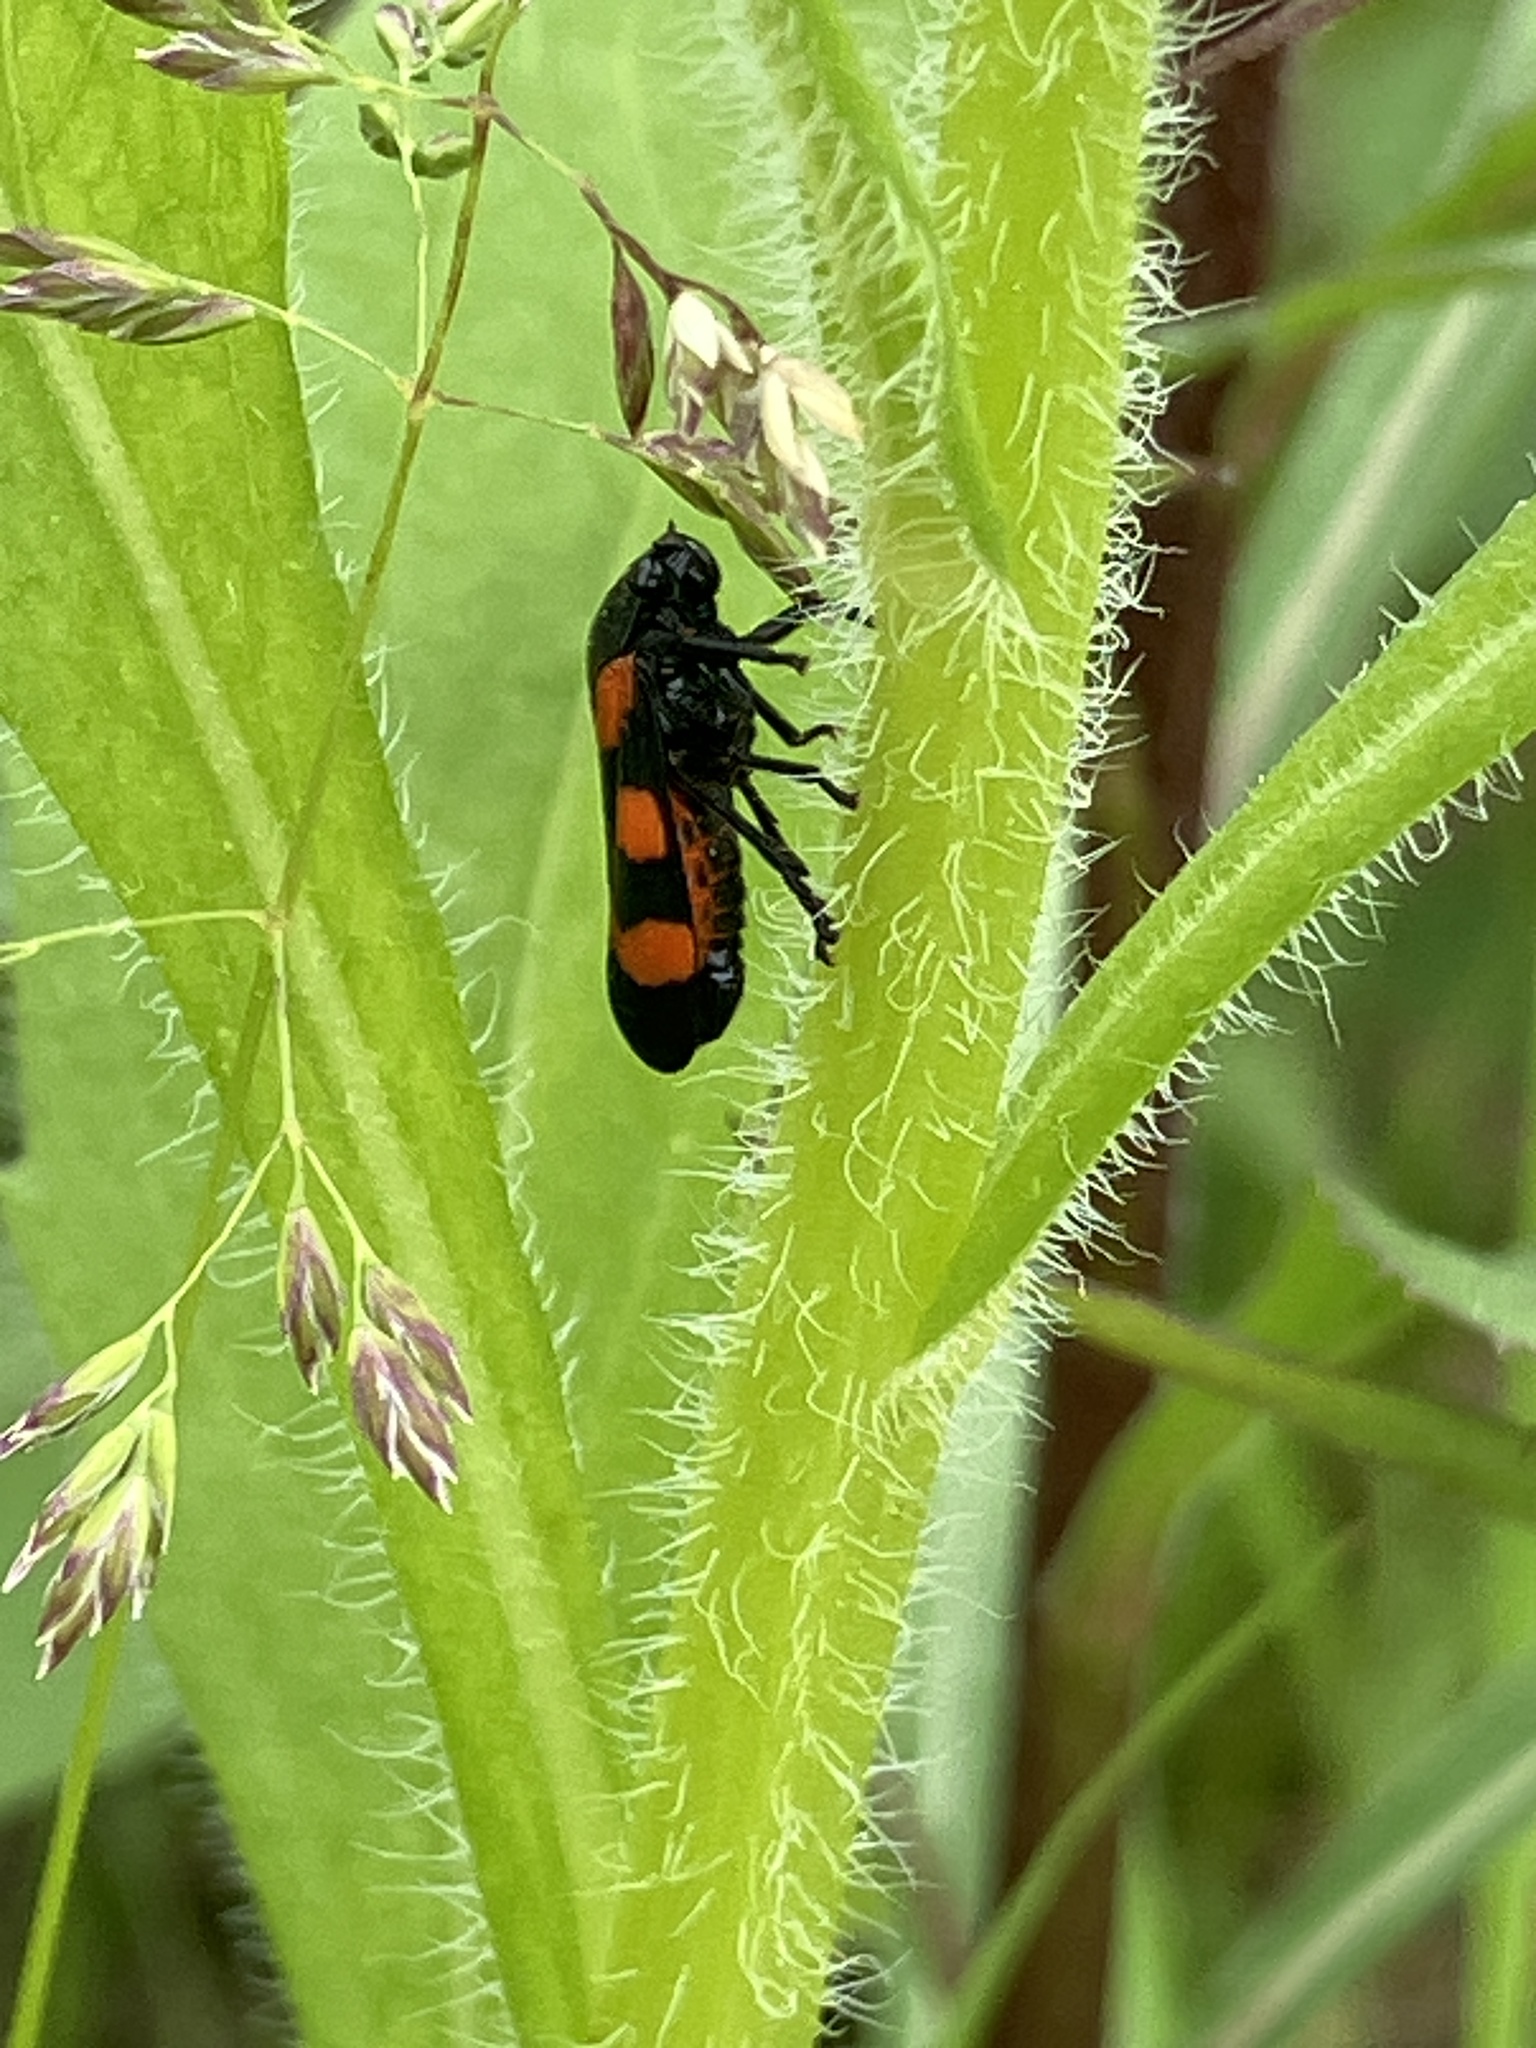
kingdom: Animalia
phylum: Arthropoda
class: Insecta
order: Hemiptera
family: Cercopidae
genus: Cercopis
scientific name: Cercopis sanguinolenta
